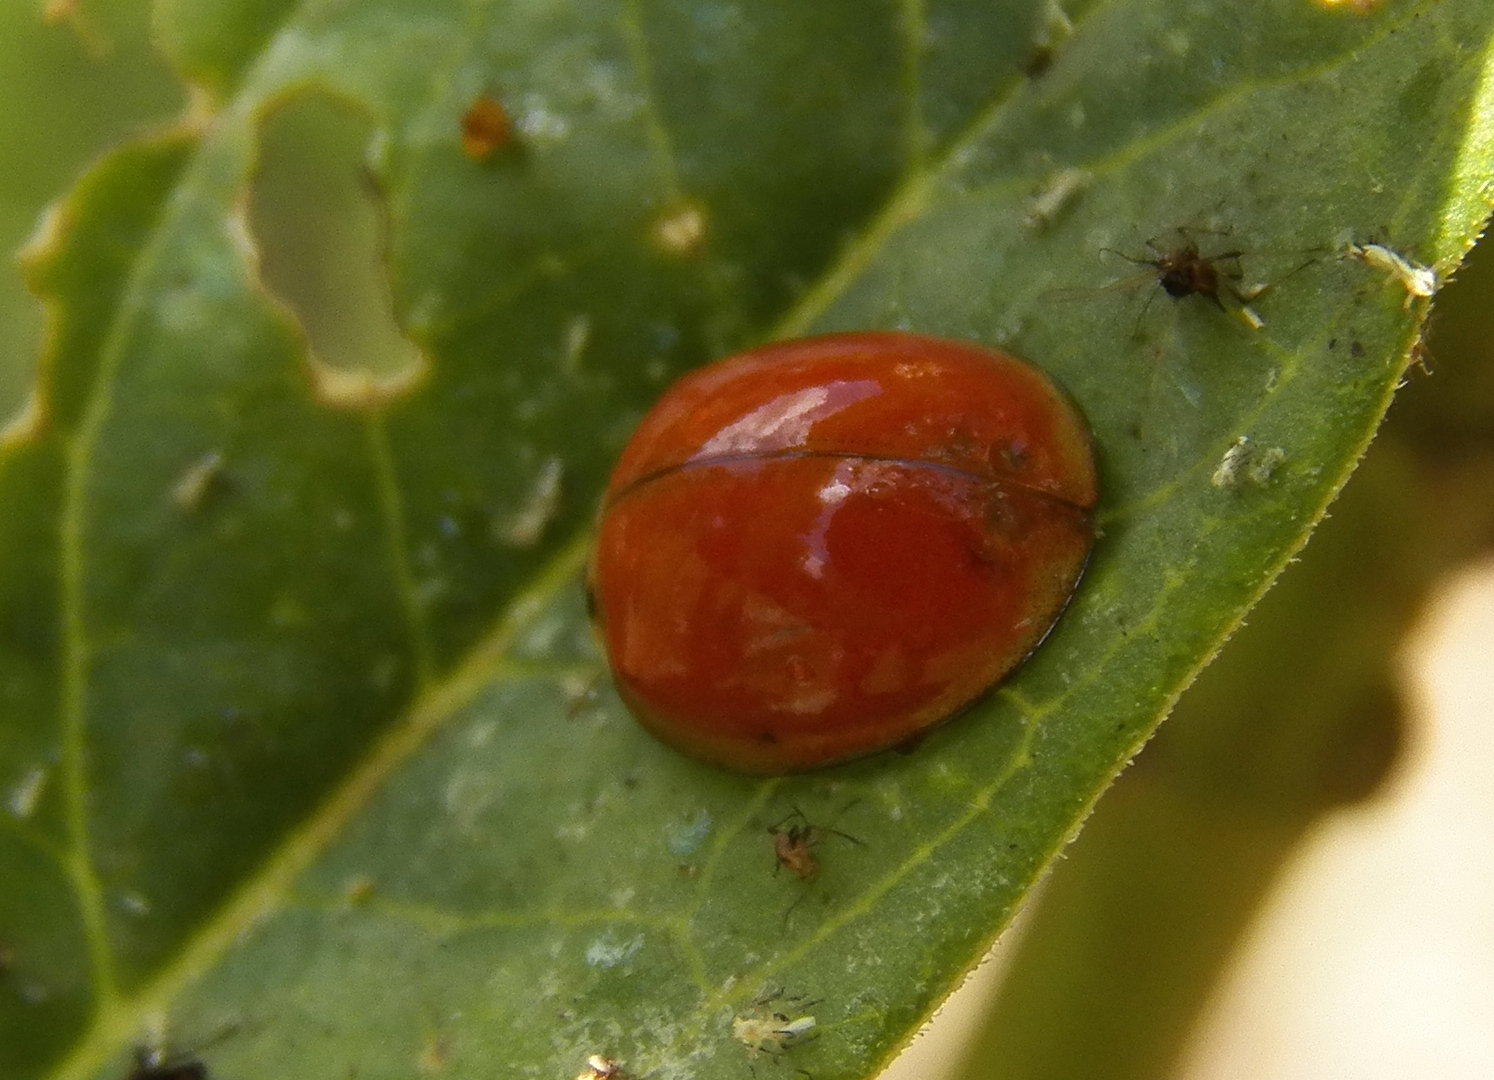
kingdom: Animalia
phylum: Arthropoda
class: Insecta
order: Coleoptera
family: Coccinellidae
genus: Harmonia
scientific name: Harmonia axyridis
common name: Harlequin ladybird
